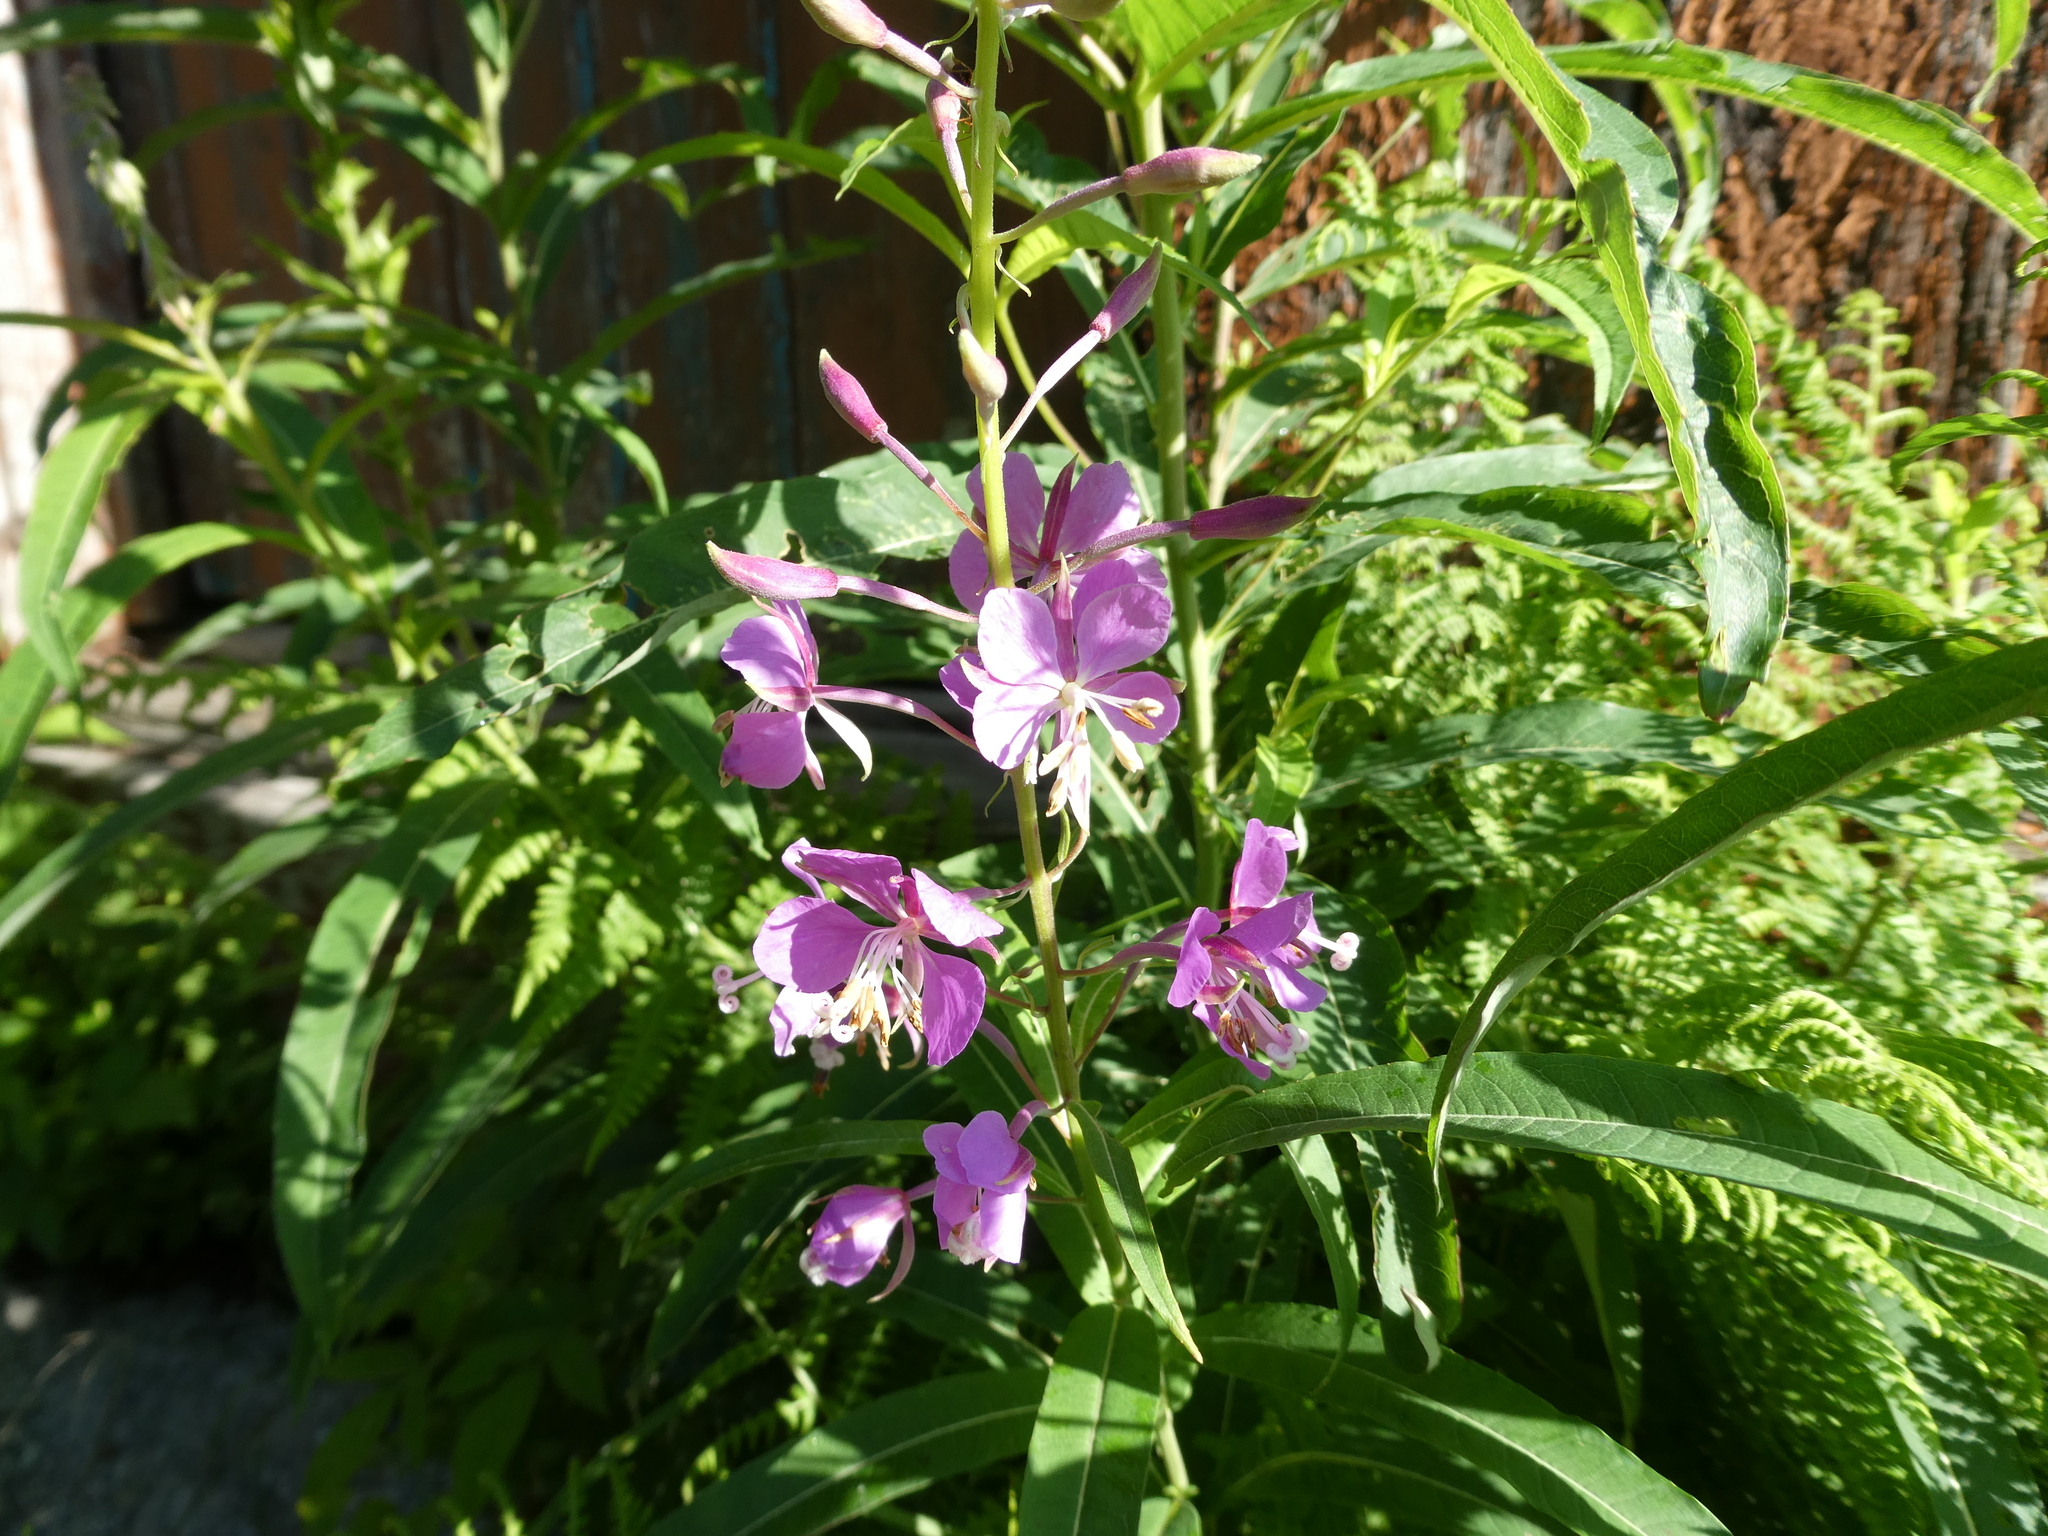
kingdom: Plantae
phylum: Tracheophyta
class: Magnoliopsida
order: Myrtales
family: Onagraceae
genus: Chamaenerion
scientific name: Chamaenerion angustifolium
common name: Fireweed
